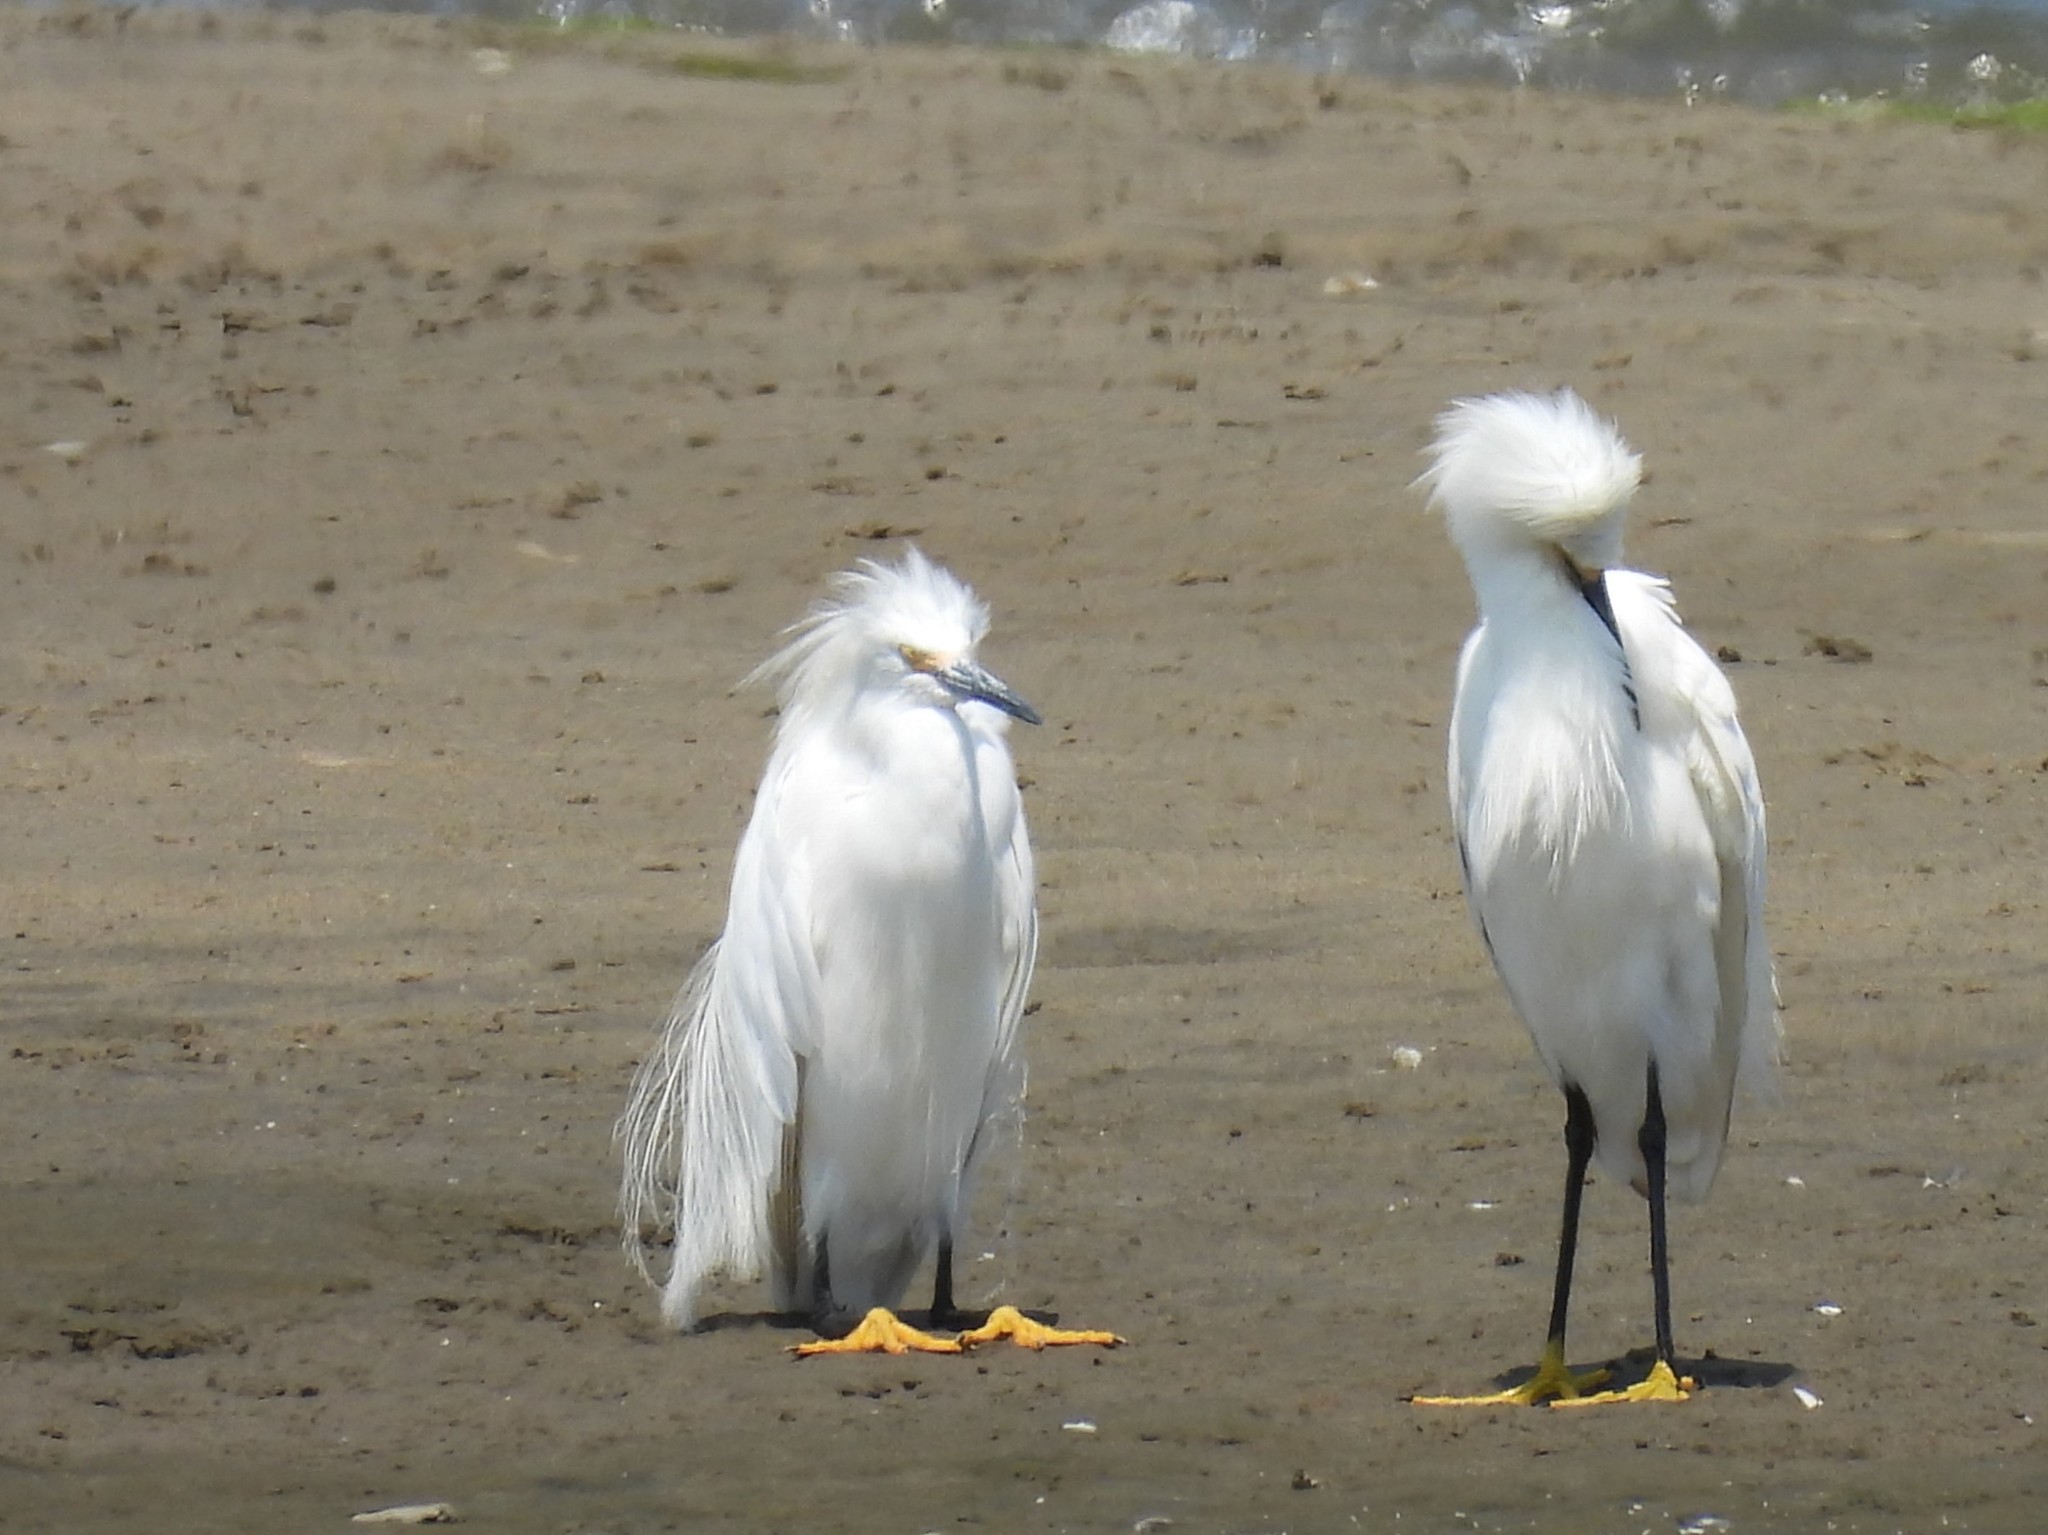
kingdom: Animalia
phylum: Chordata
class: Aves
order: Pelecaniformes
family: Ardeidae
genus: Egretta
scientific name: Egretta thula
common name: Snowy egret
